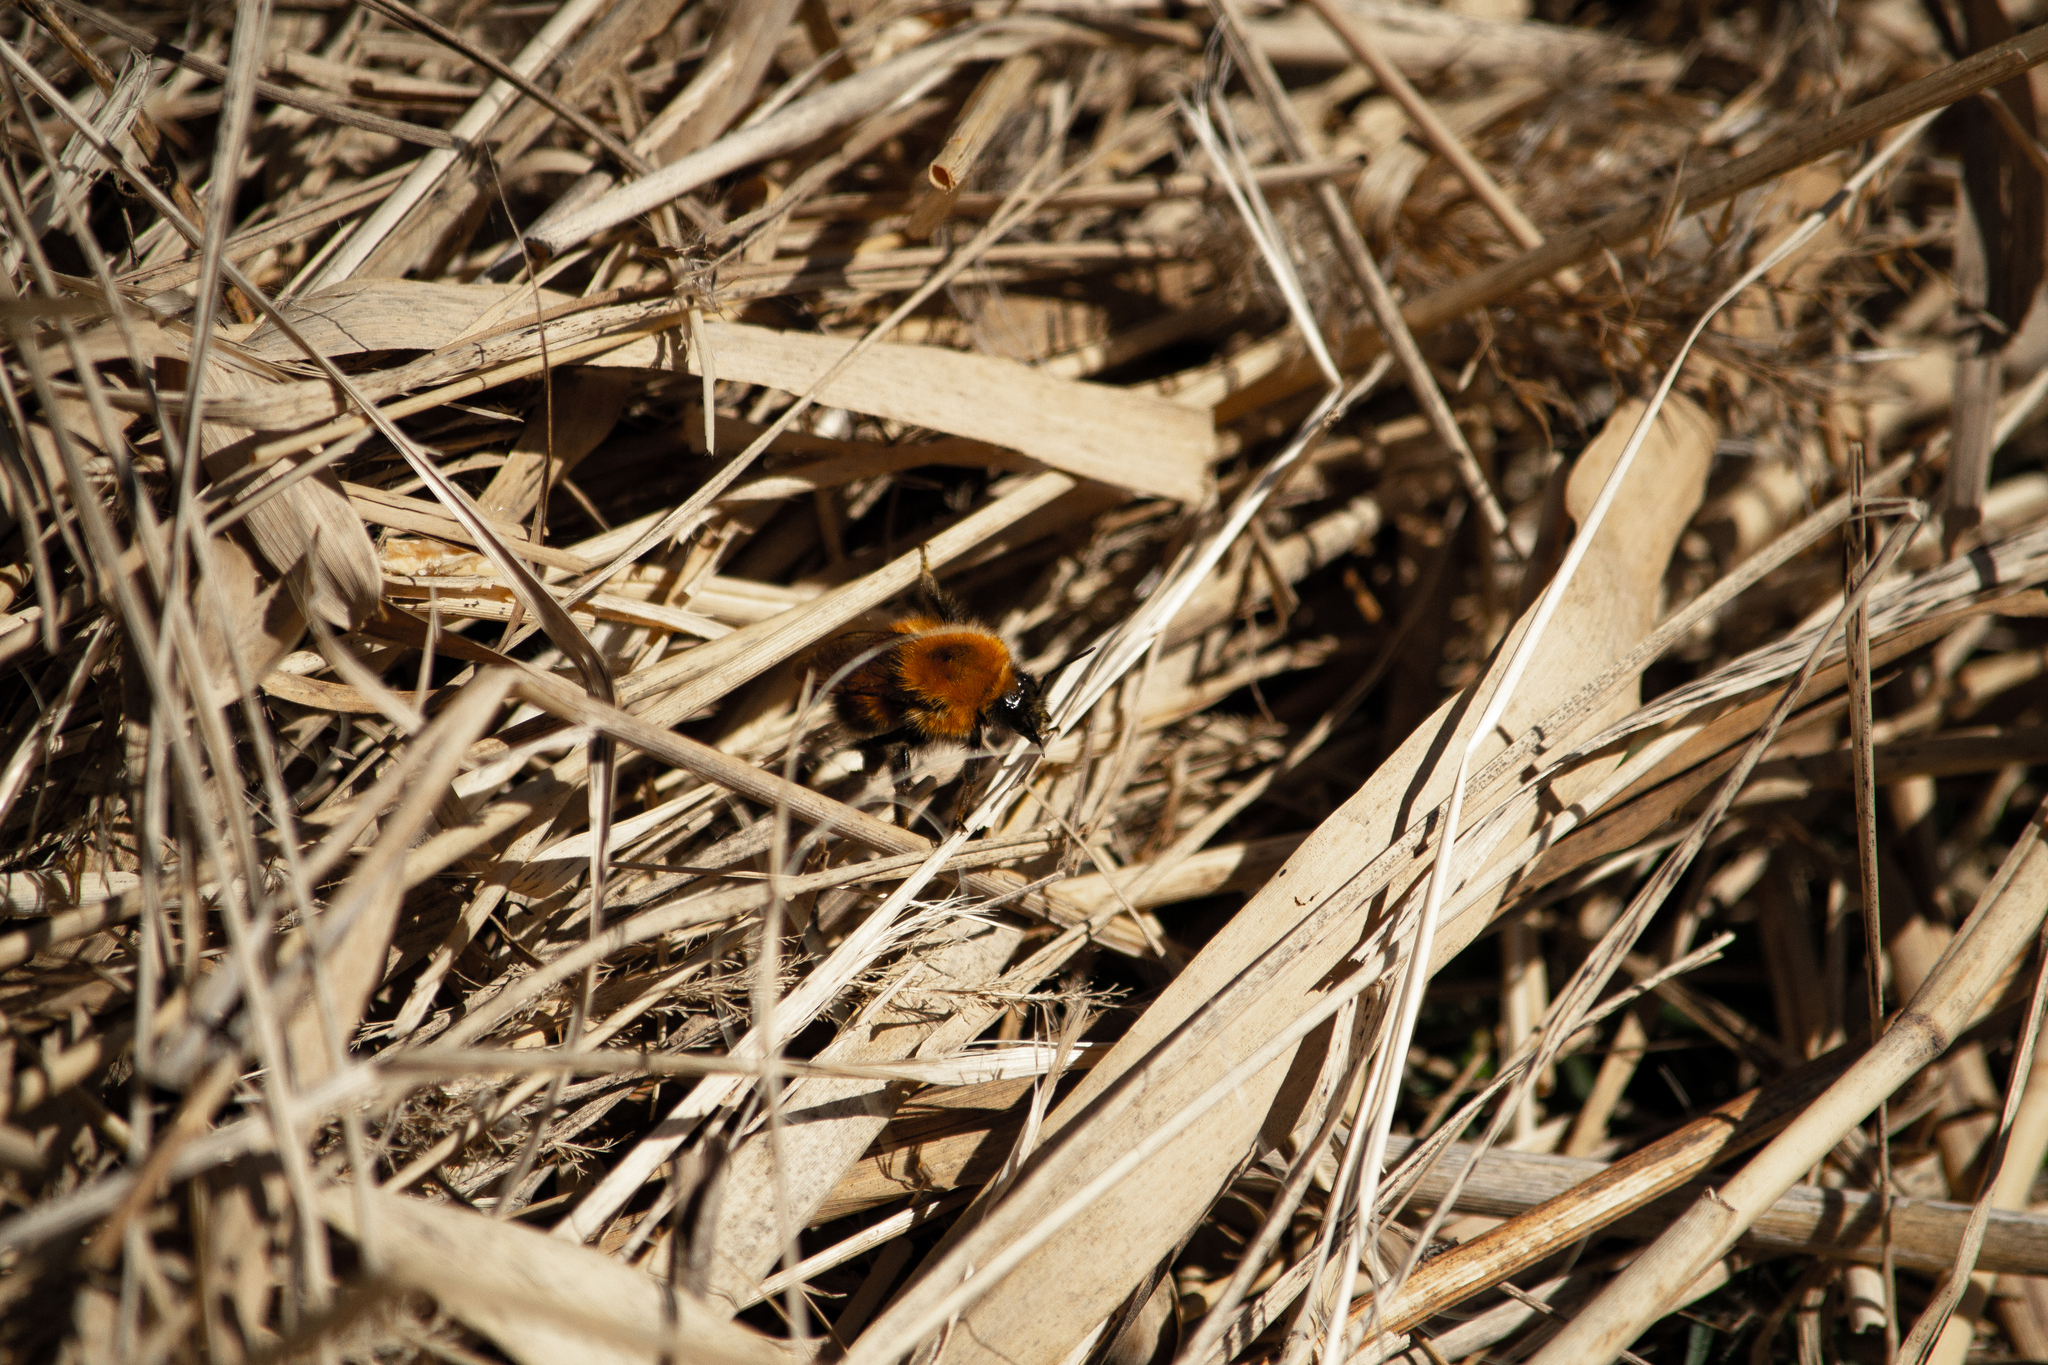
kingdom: Animalia
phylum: Arthropoda
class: Insecta
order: Hymenoptera
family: Apidae
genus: Bombus
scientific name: Bombus
